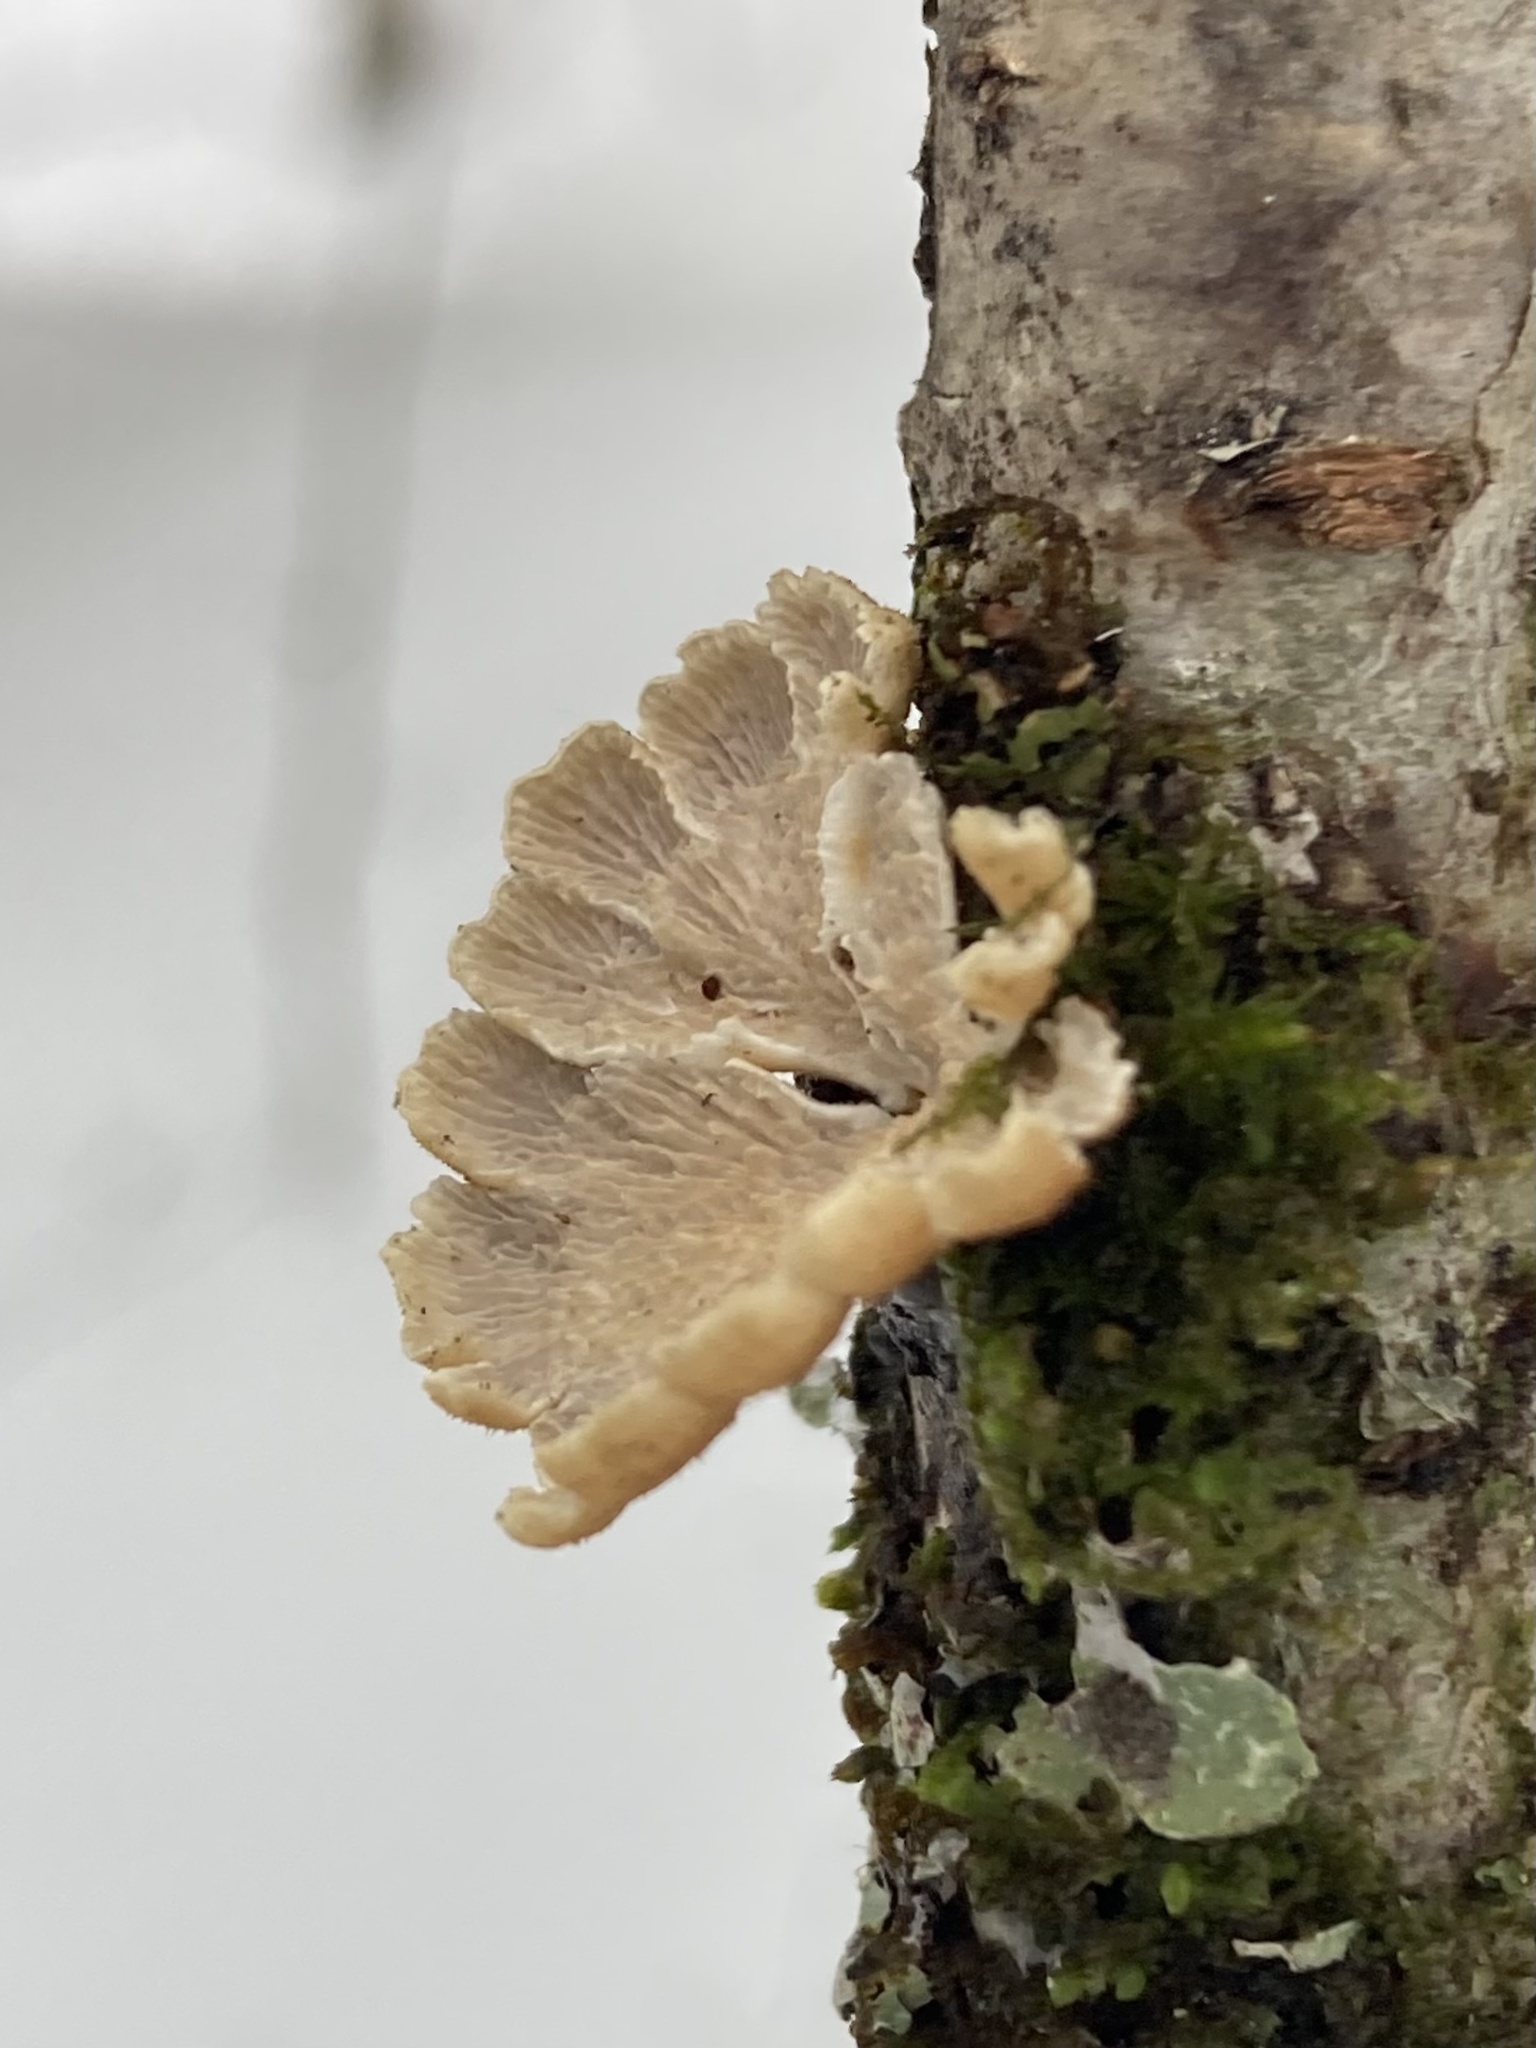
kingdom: Fungi
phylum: Basidiomycota
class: Agaricomycetes
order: Amylocorticiales
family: Amylocorticiaceae
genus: Plicaturopsis
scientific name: Plicaturopsis crispa
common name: Crimped gill
